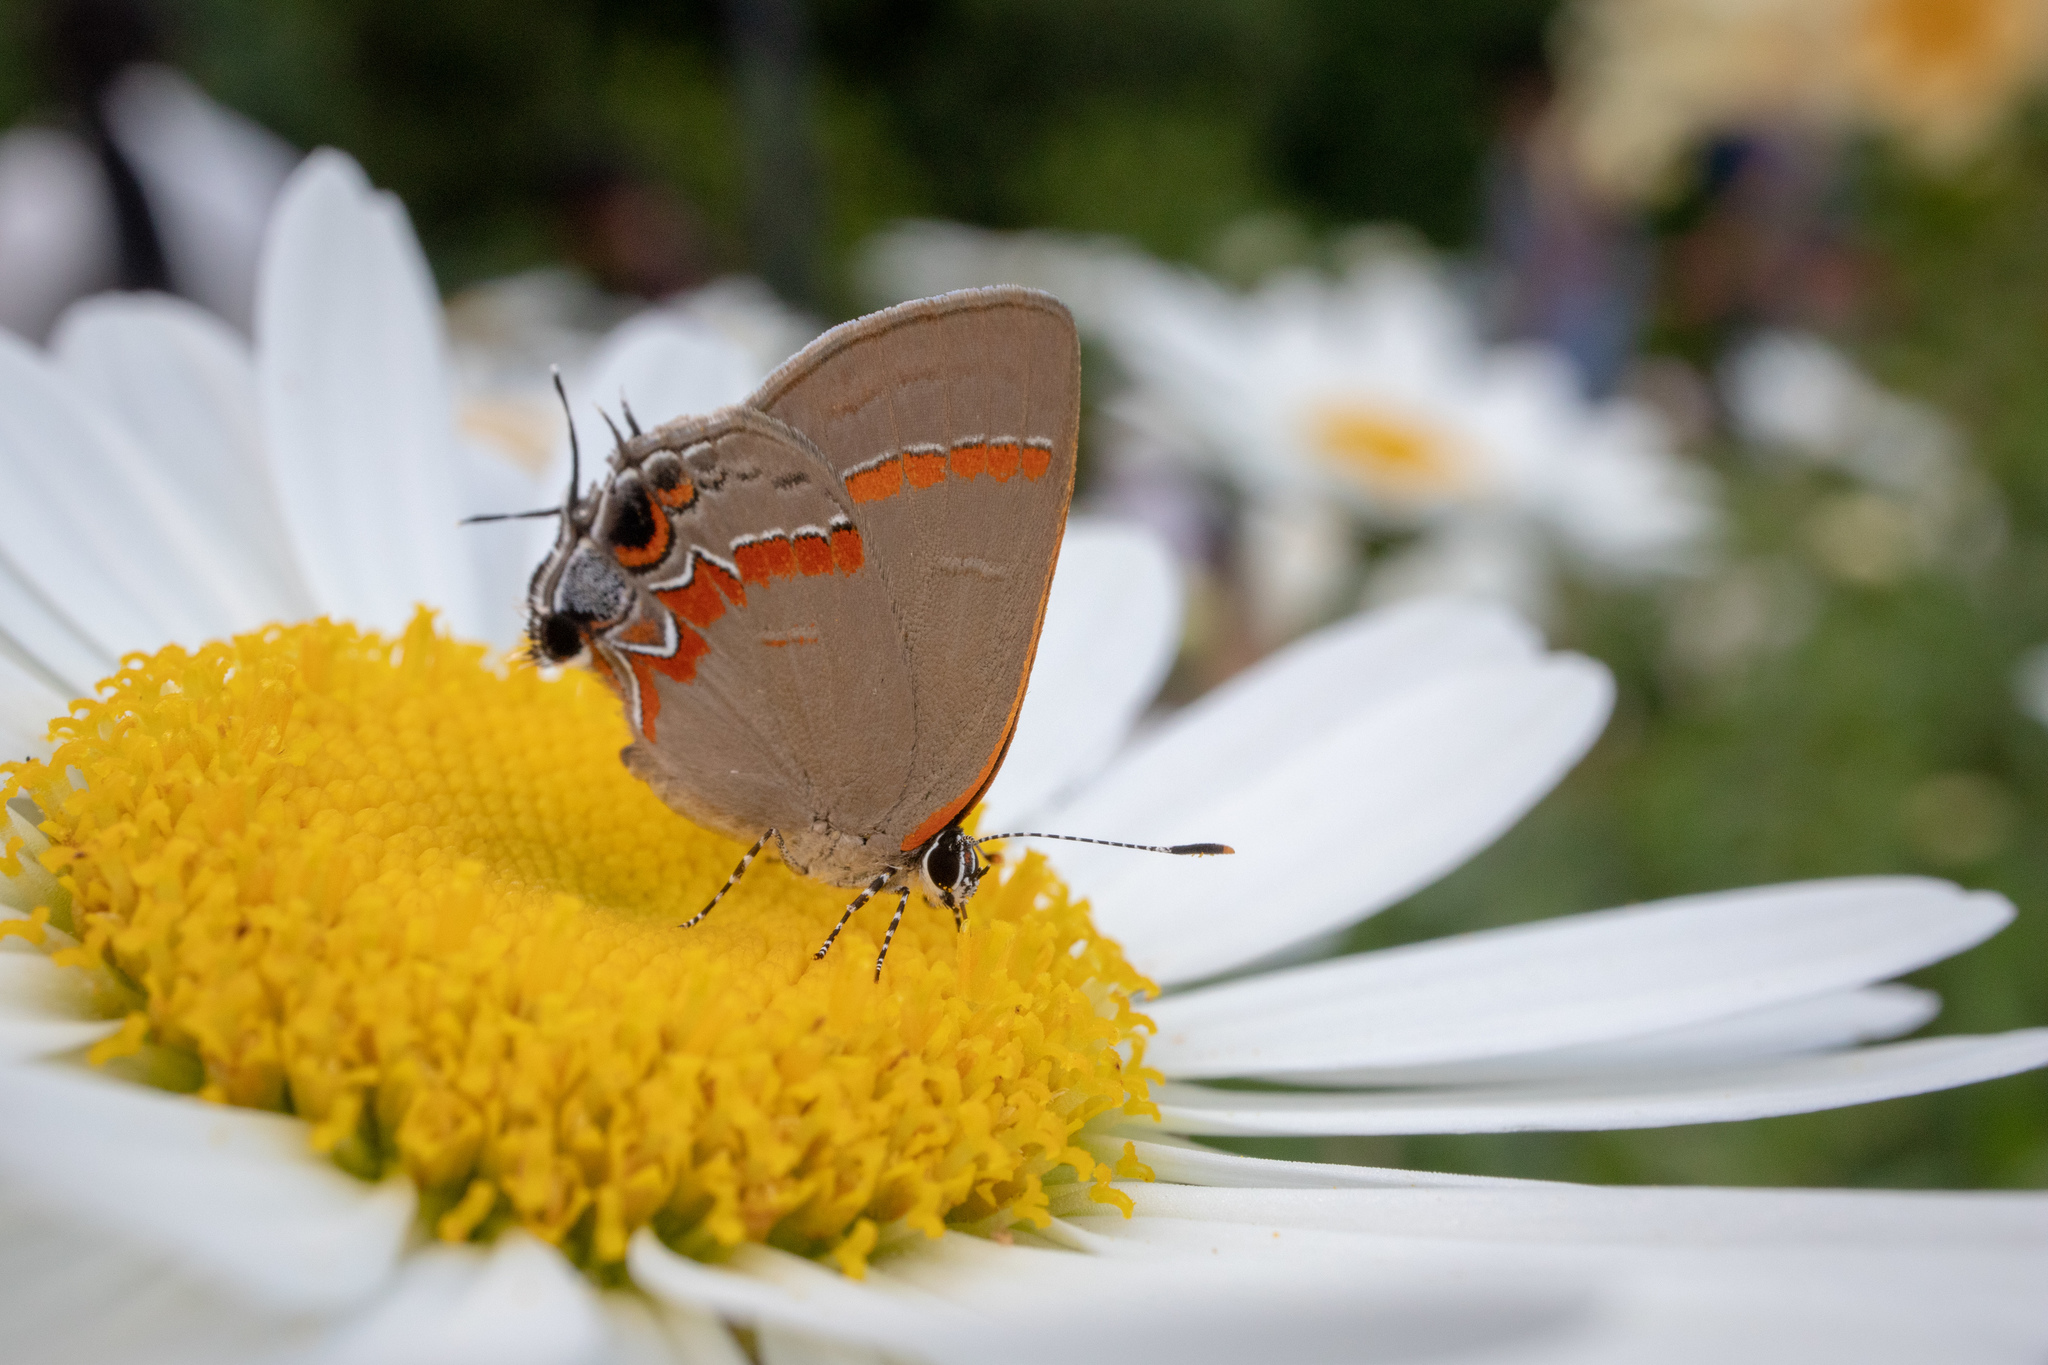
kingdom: Animalia
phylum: Arthropoda
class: Insecta
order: Lepidoptera
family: Lycaenidae
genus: Calycopis
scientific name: Calycopis cecrops
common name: Red-banded hairstreak
